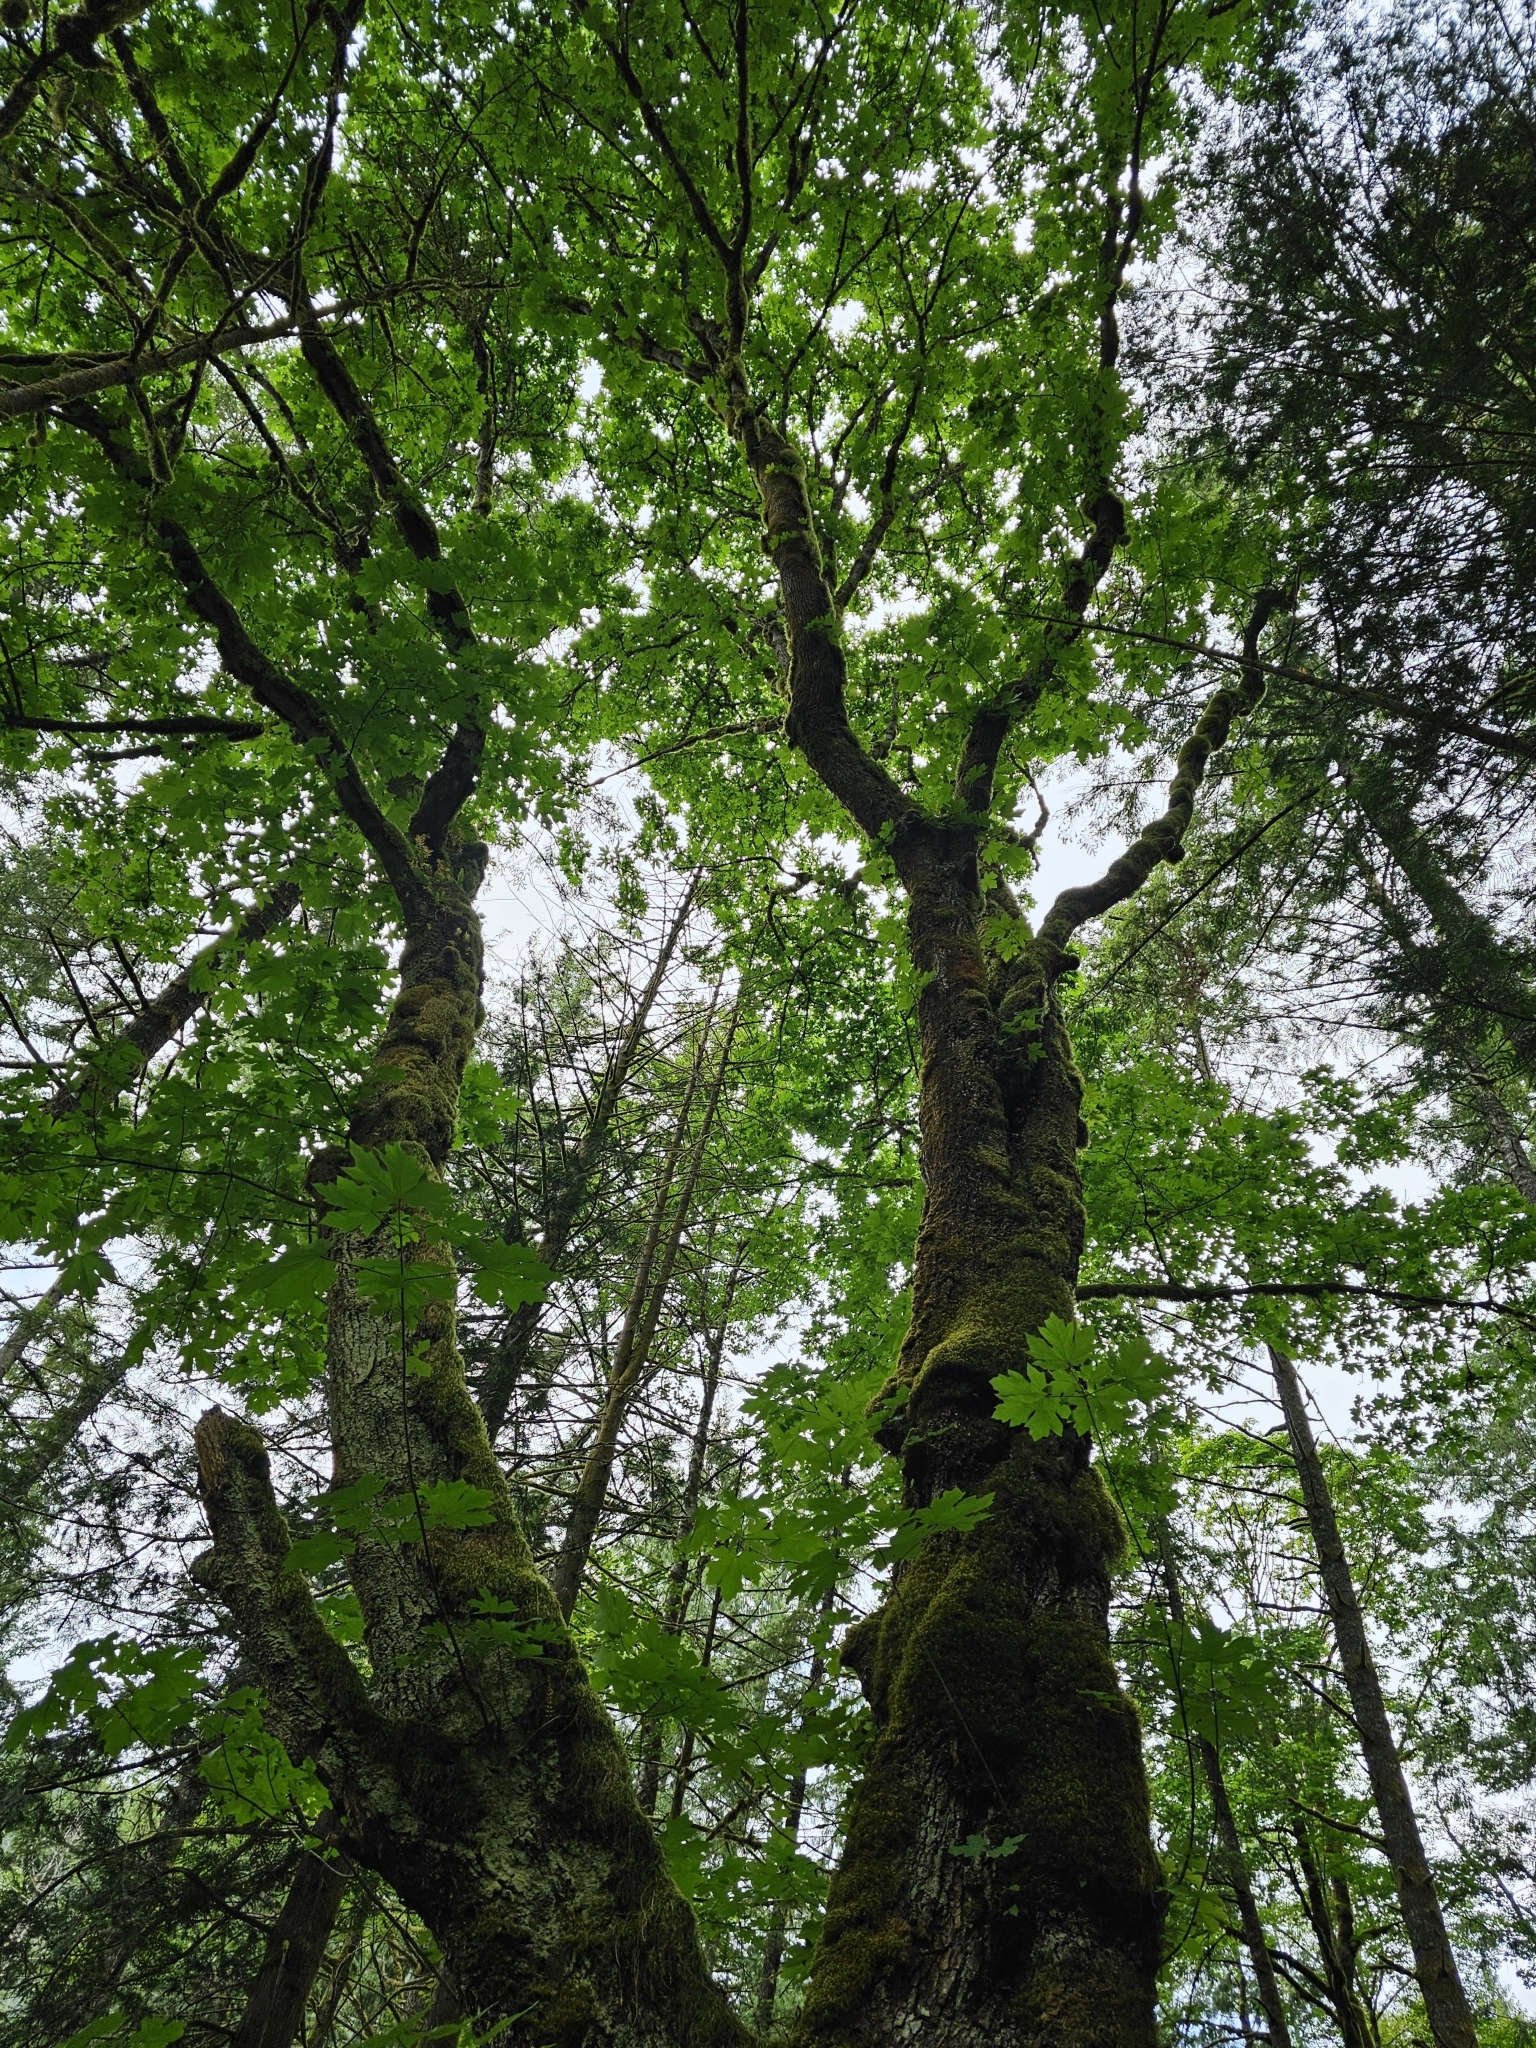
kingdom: Plantae
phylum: Tracheophyta
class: Magnoliopsida
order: Sapindales
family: Sapindaceae
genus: Acer
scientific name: Acer macrophyllum
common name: Oregon maple
